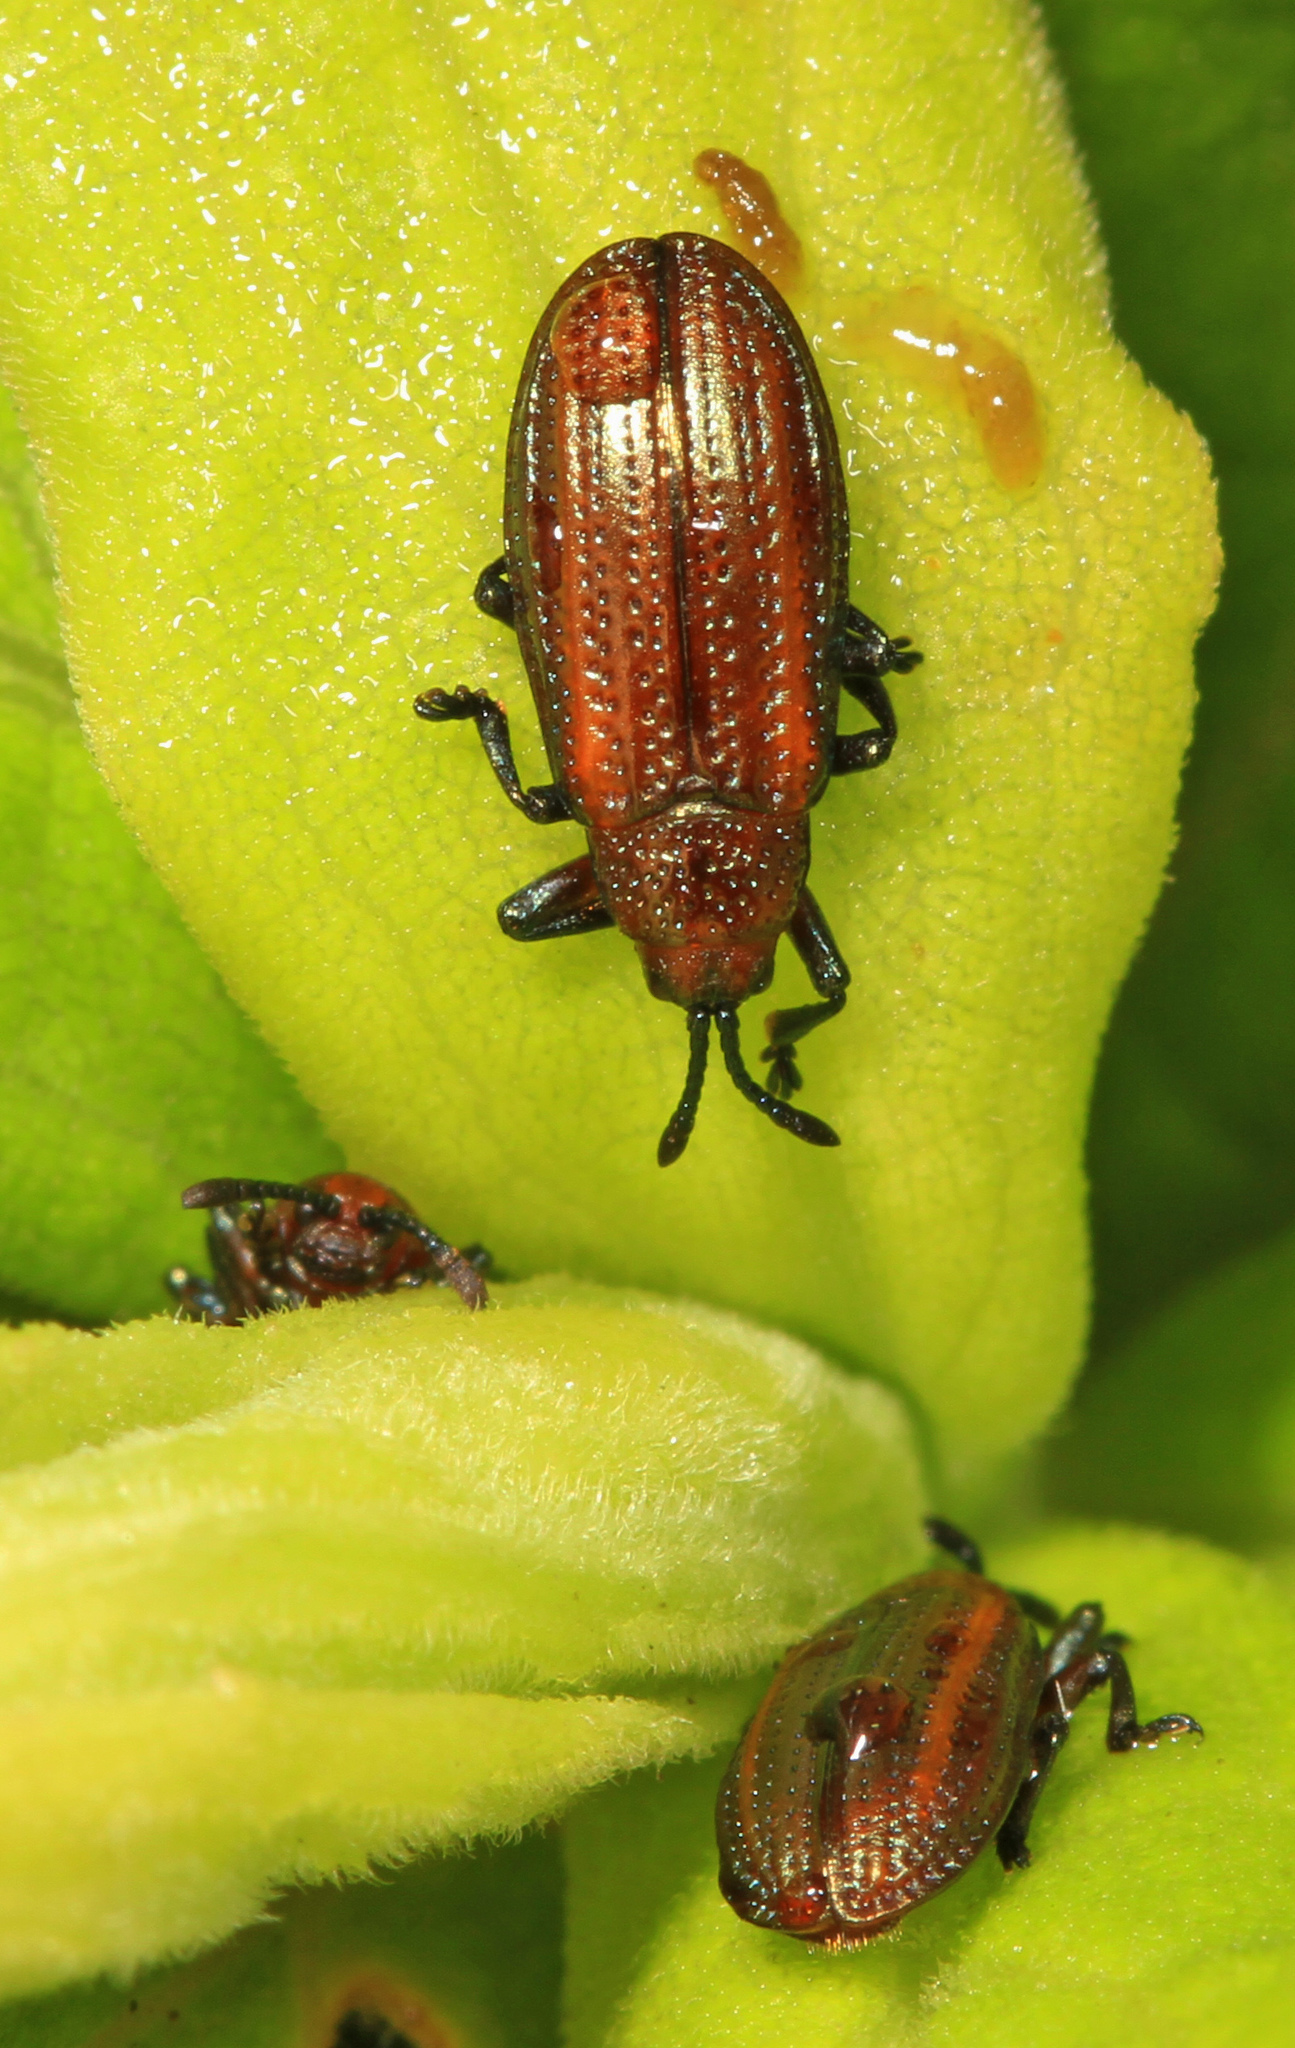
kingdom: Animalia
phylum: Arthropoda
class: Insecta
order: Coleoptera
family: Chrysomelidae
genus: Microrhopala
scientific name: Microrhopala vittata
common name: Goldenrod leaf miner beetle
